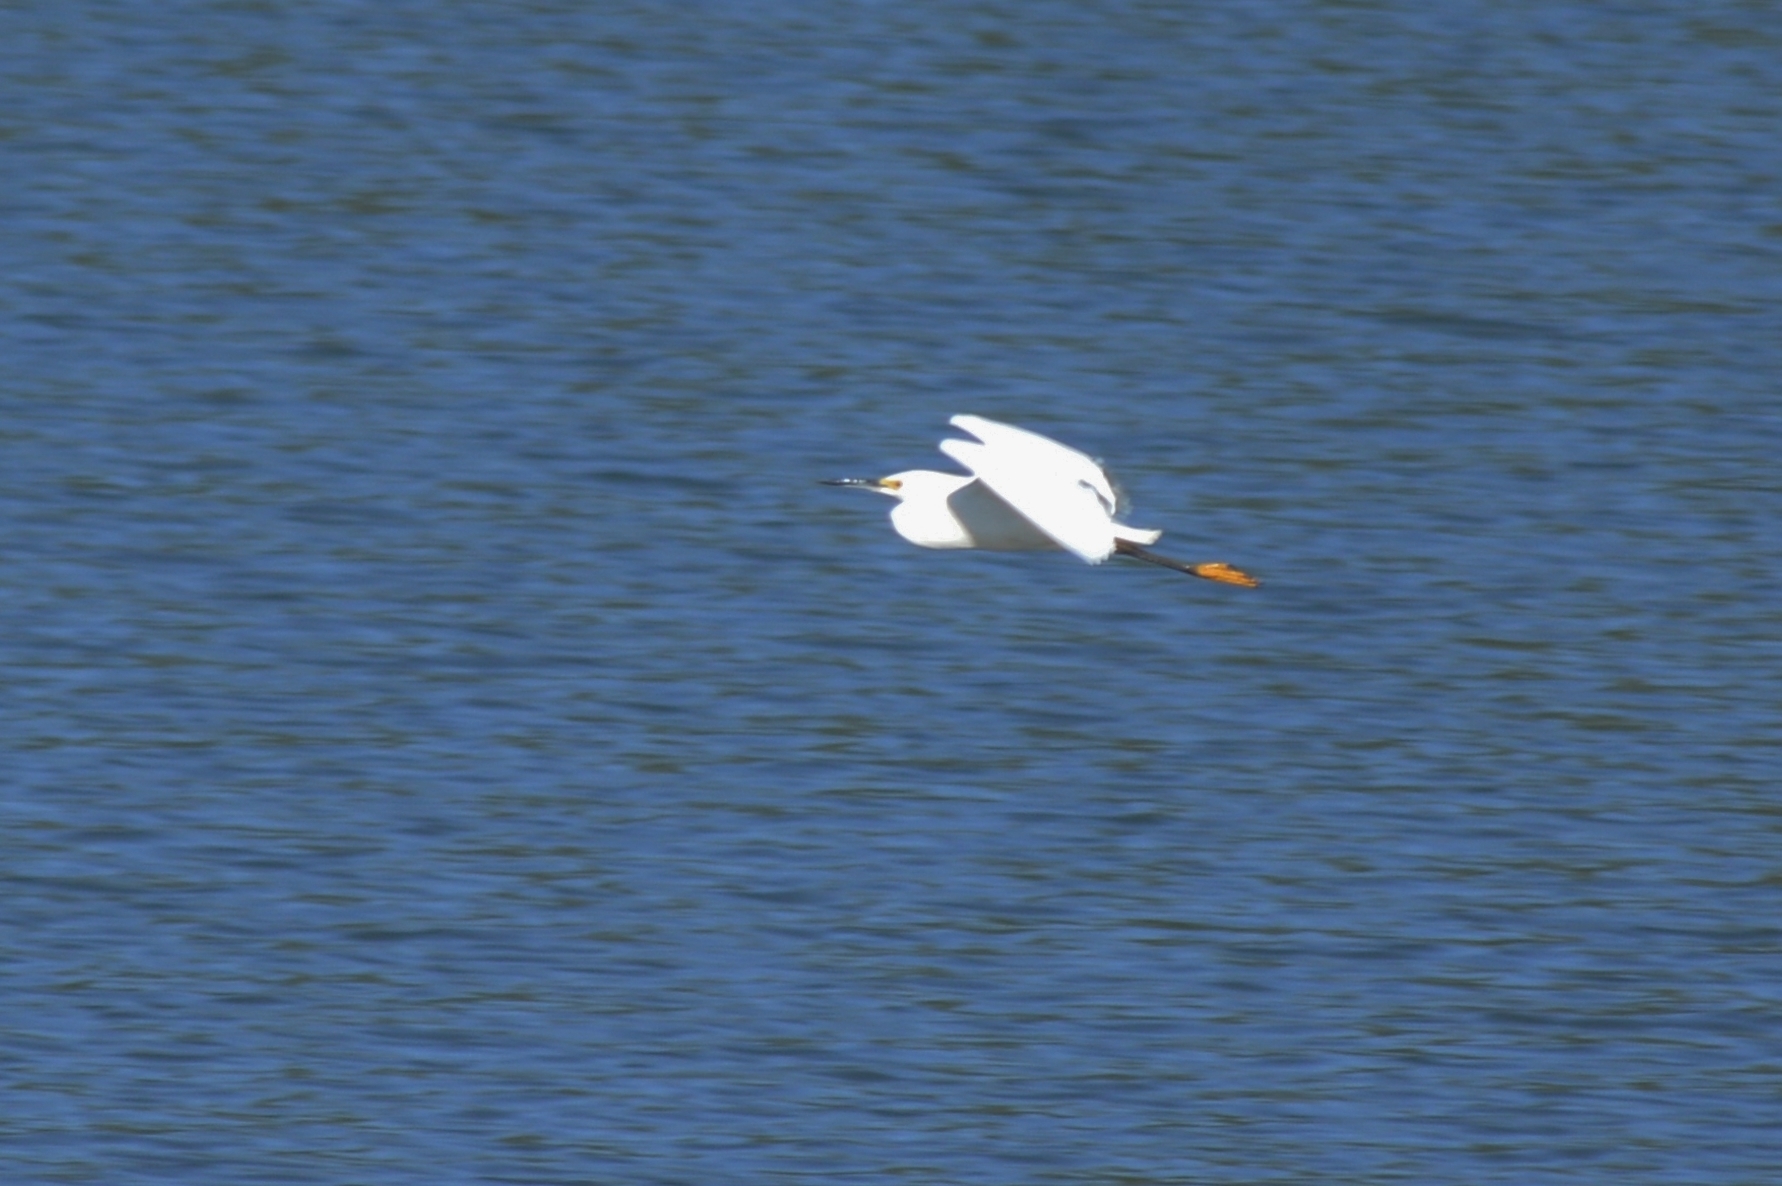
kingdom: Animalia
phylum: Chordata
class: Aves
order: Pelecaniformes
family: Ardeidae
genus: Egretta
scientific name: Egretta thula
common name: Snowy egret
